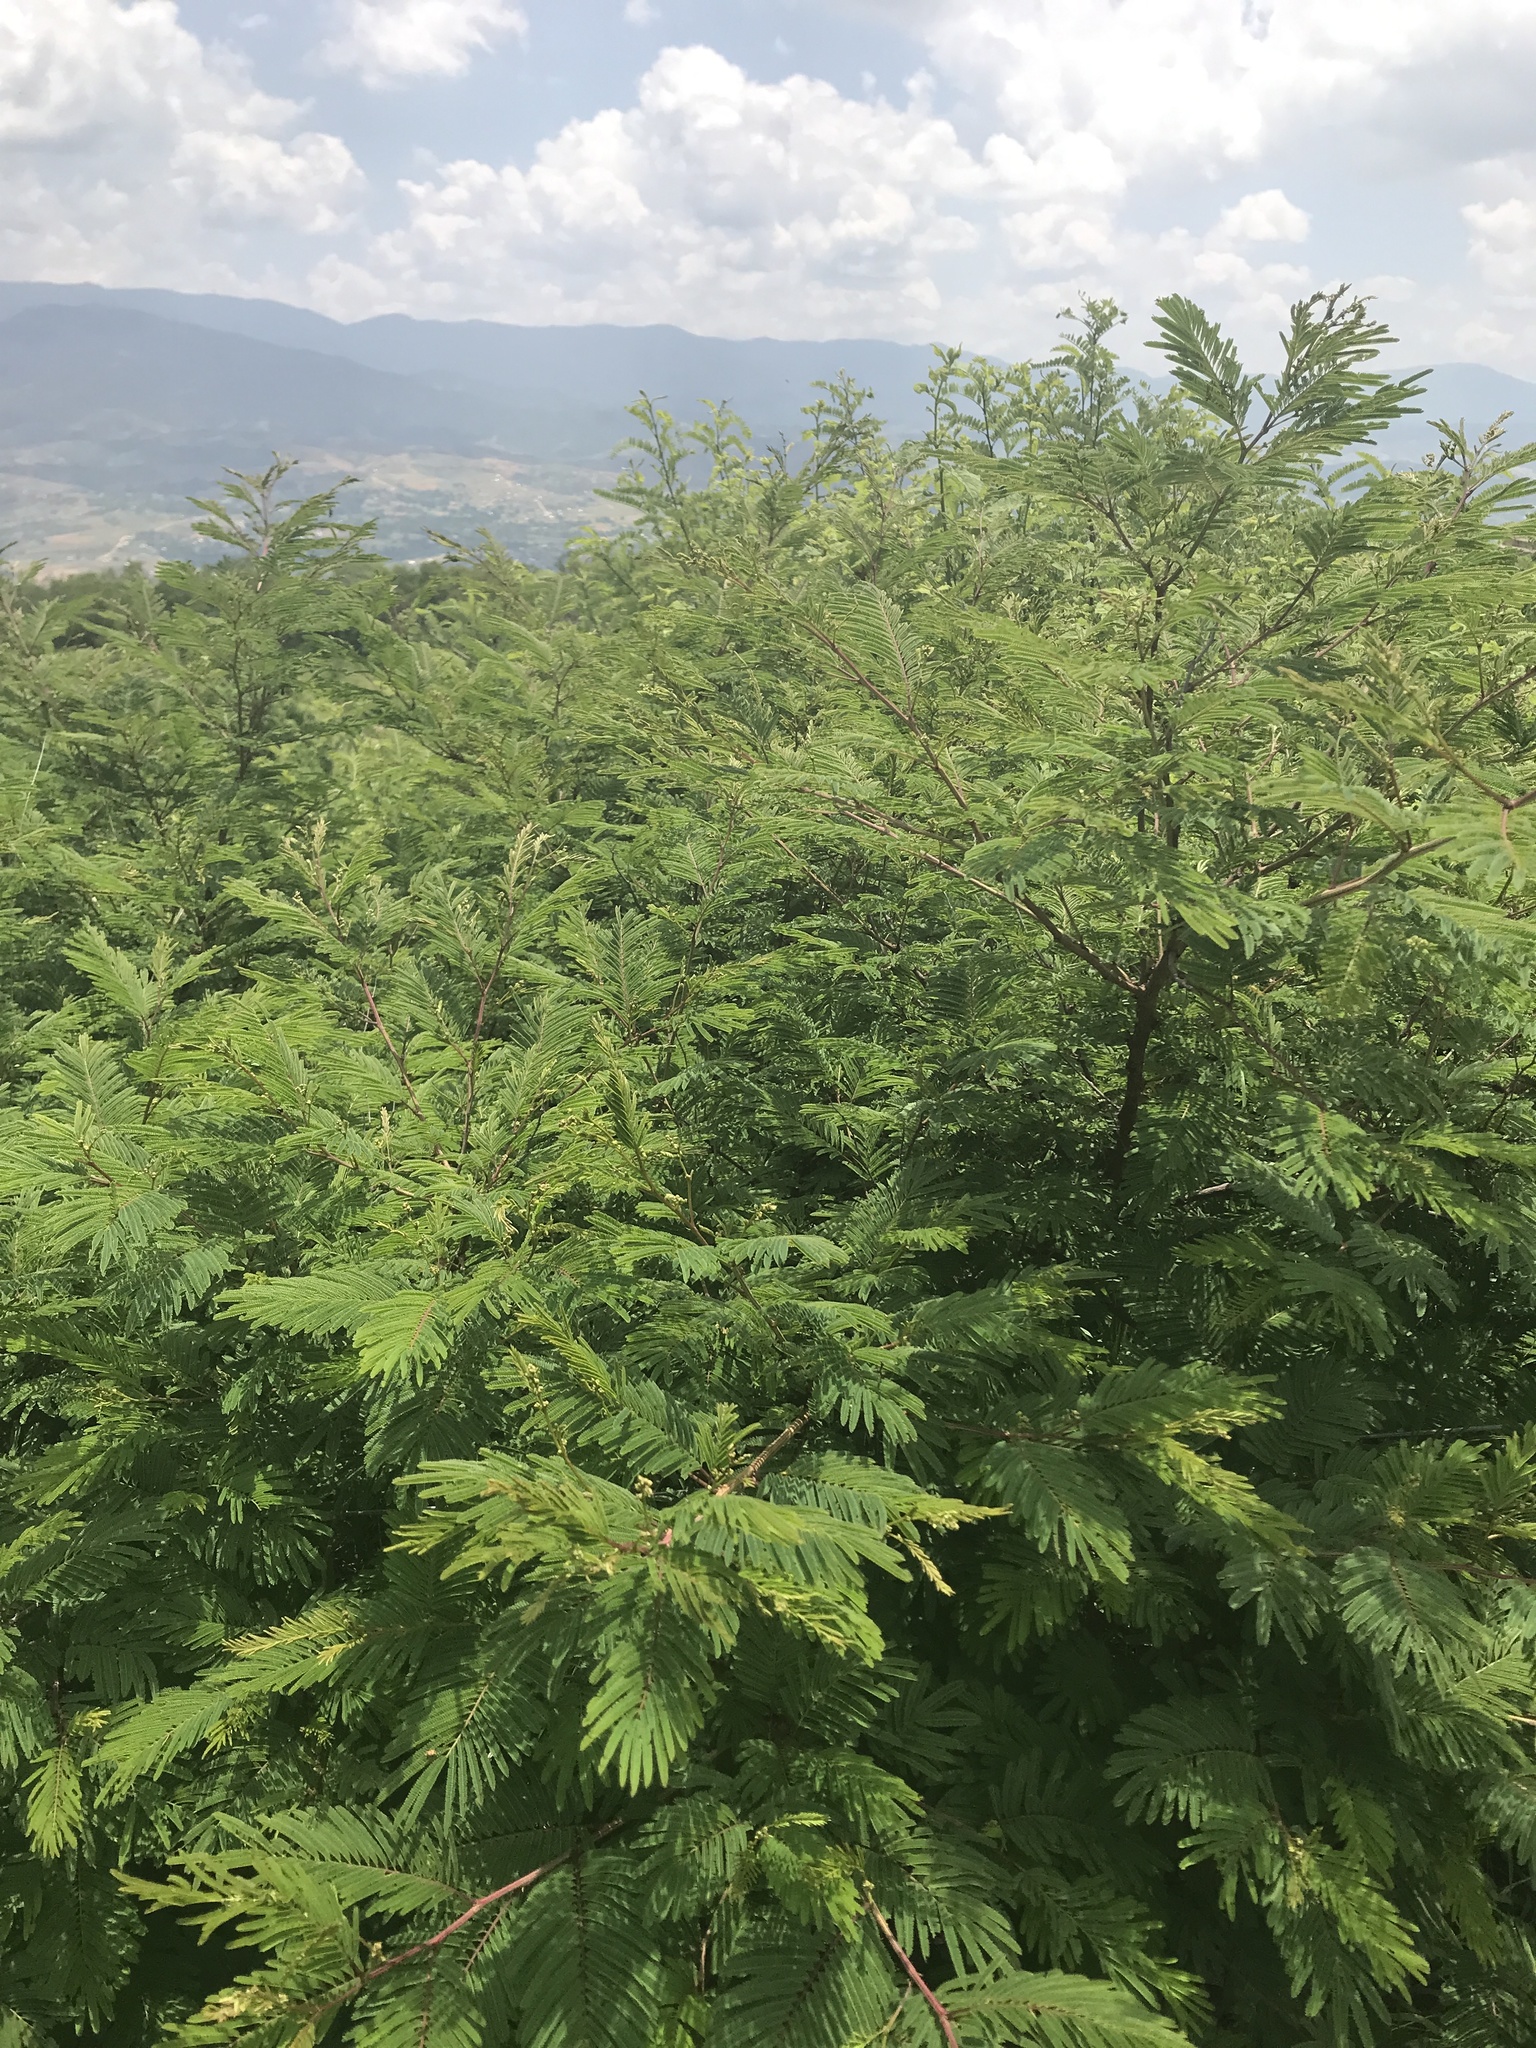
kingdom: Plantae
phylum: Tracheophyta
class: Magnoliopsida
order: Fabales
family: Fabaceae
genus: Vachellia
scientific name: Vachellia pennatula
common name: Fern-leaf acacia
